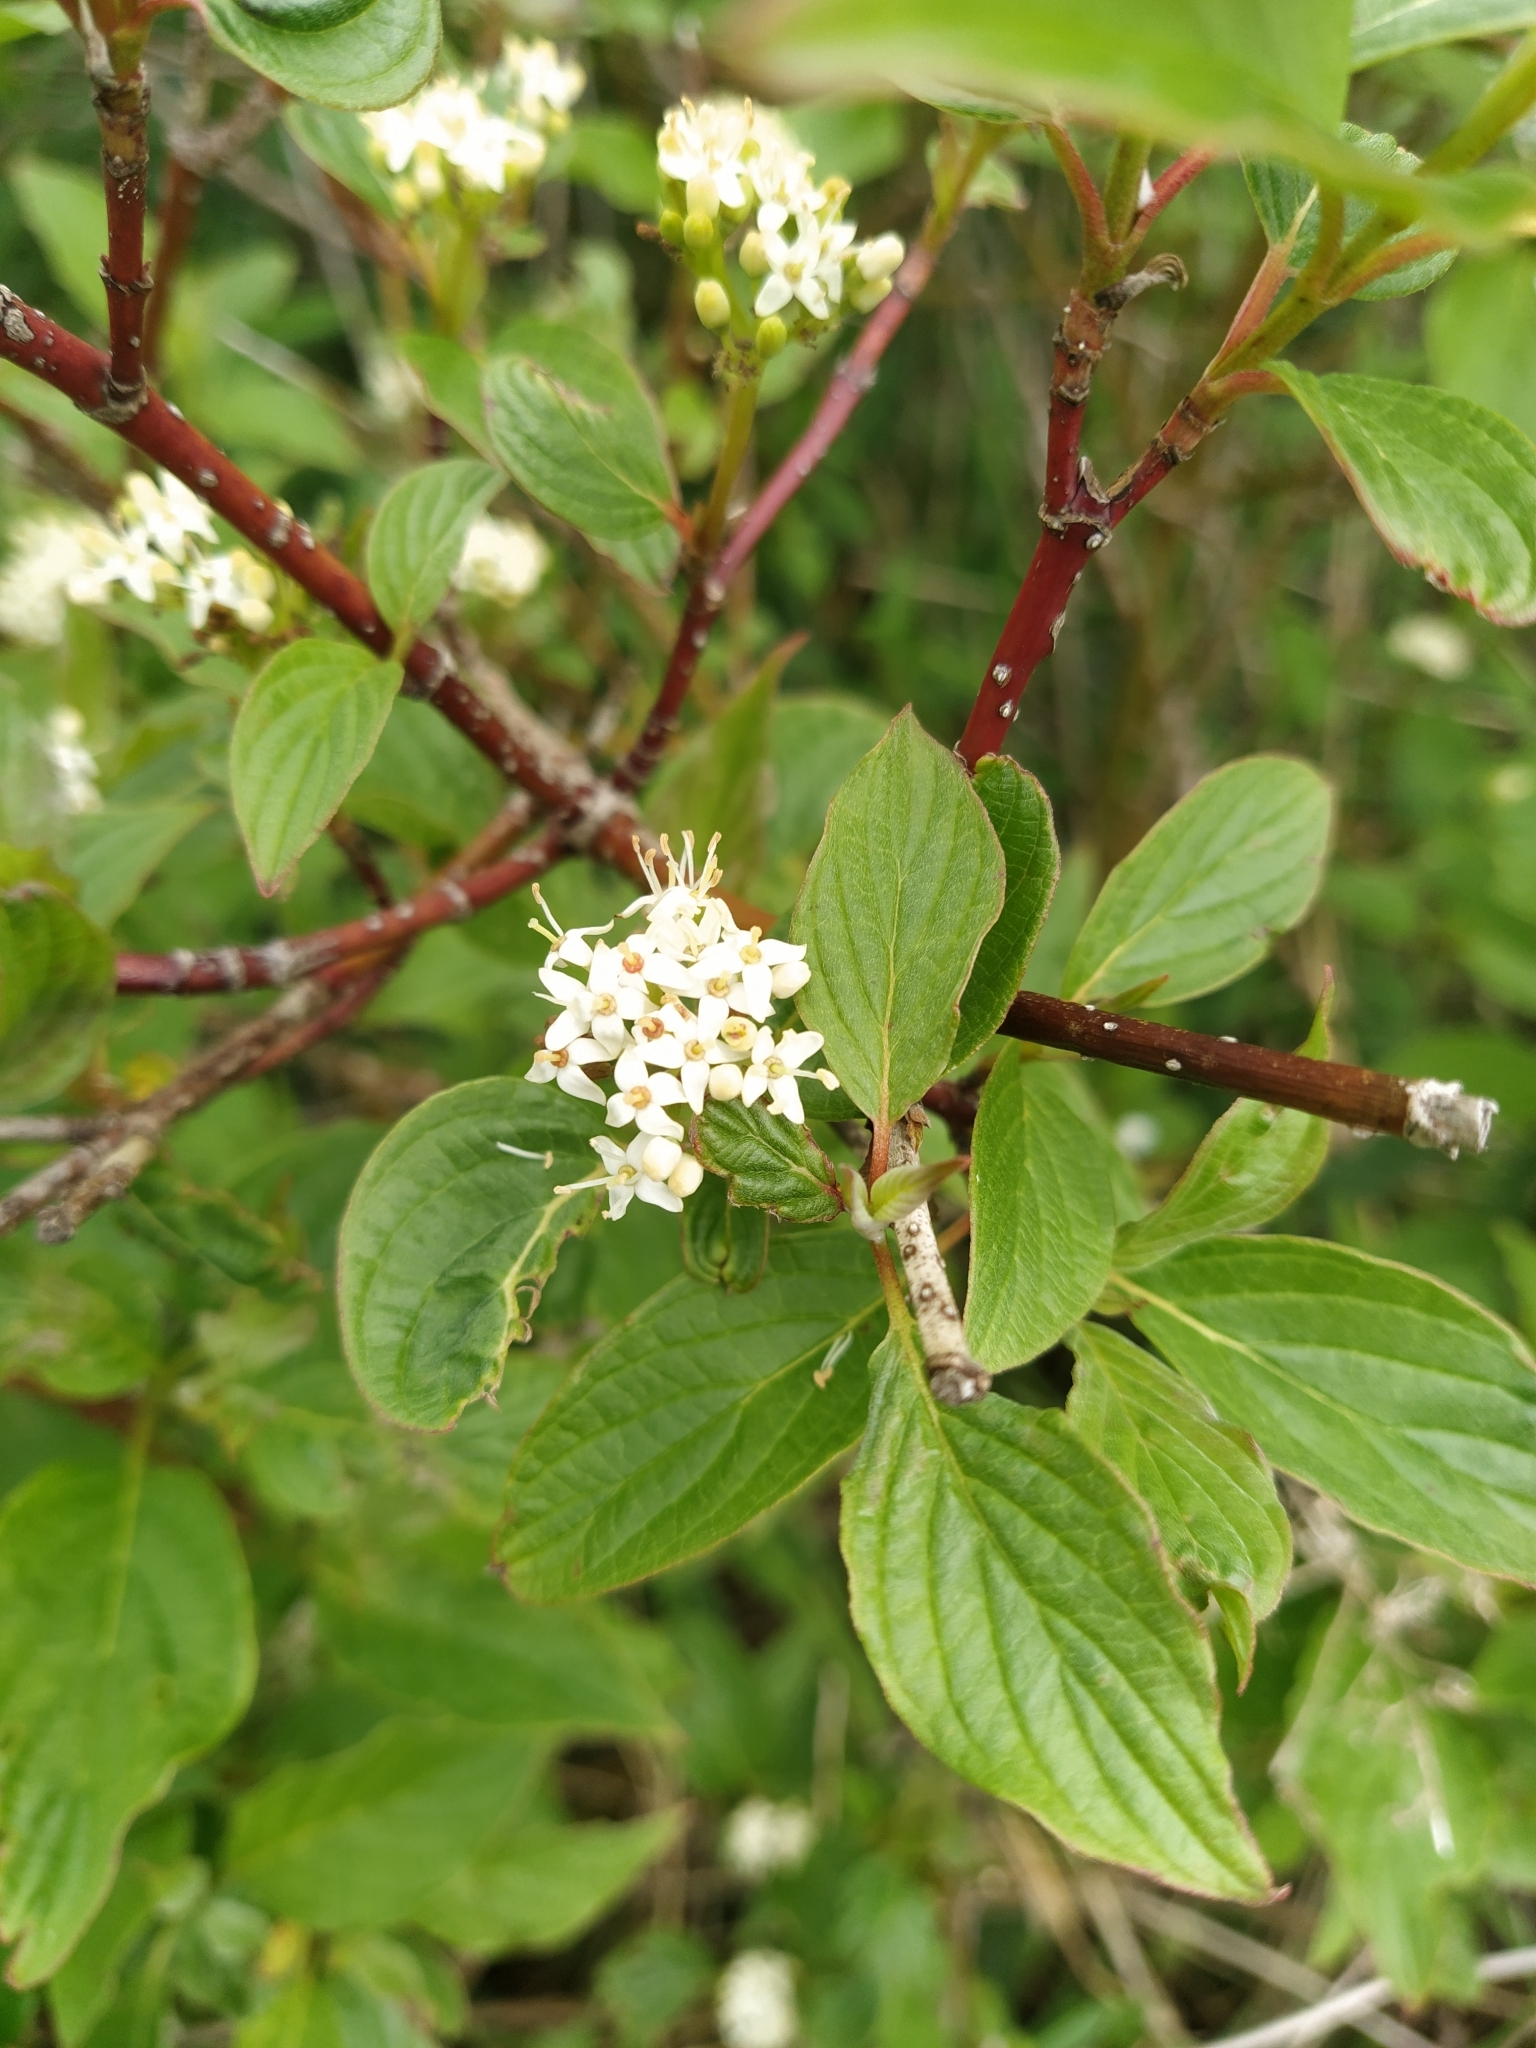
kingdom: Plantae
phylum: Tracheophyta
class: Magnoliopsida
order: Cornales
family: Cornaceae
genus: Cornus
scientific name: Cornus sericea
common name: Red-osier dogwood
